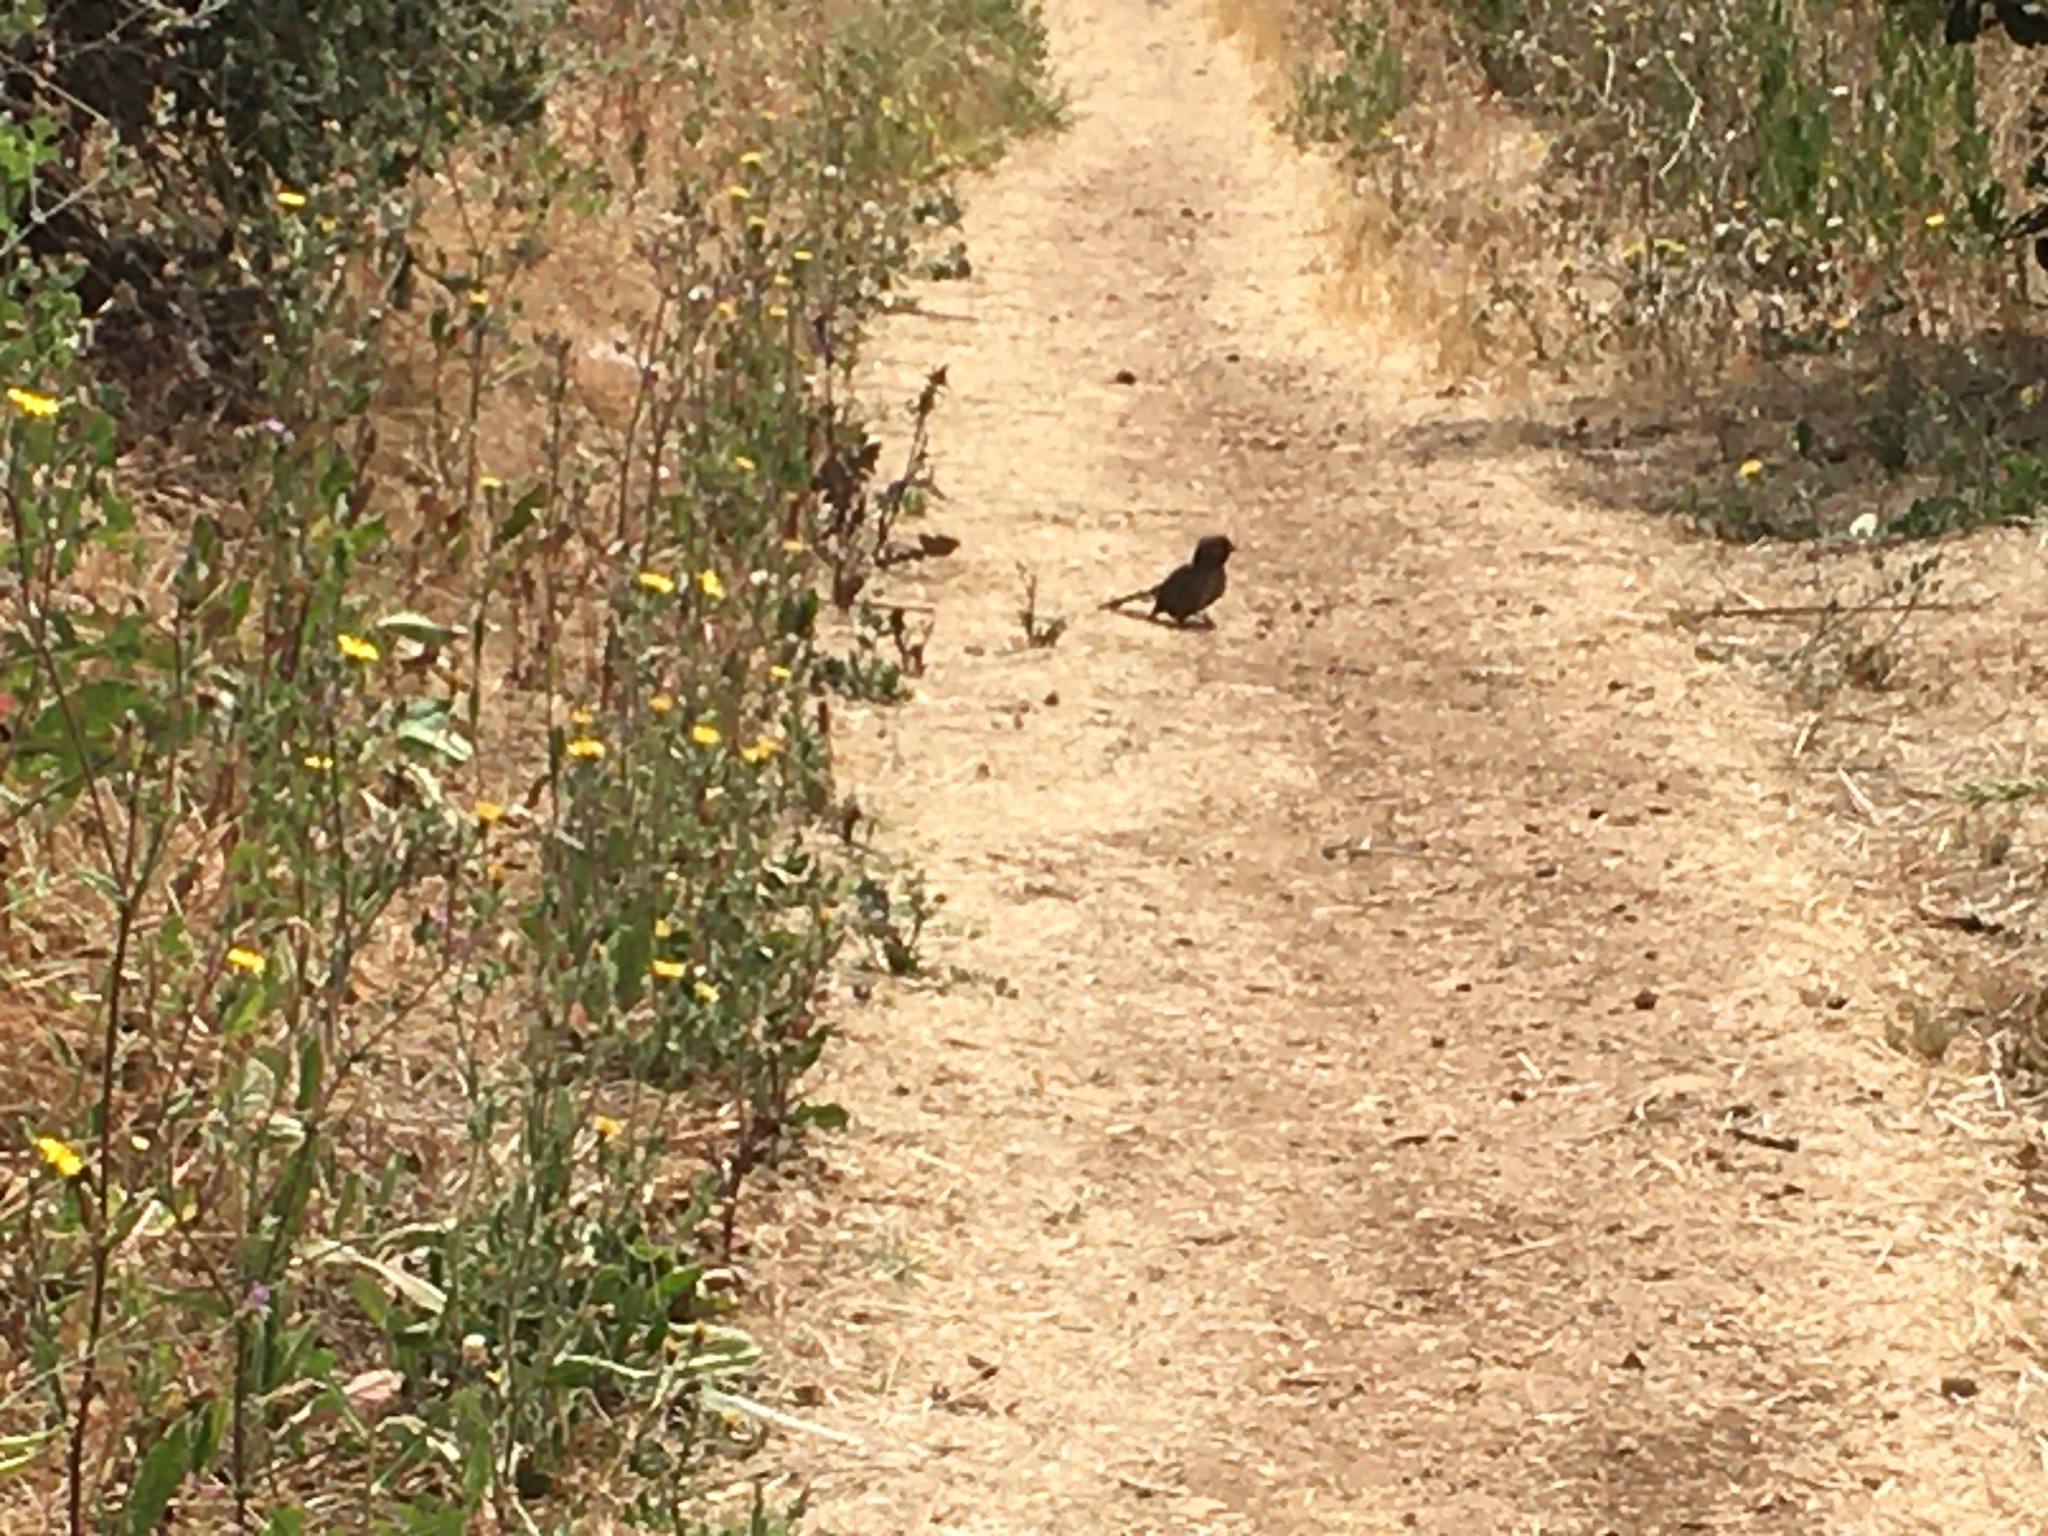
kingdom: Animalia
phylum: Chordata
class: Aves
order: Passeriformes
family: Passerellidae
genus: Melozone
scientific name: Melozone crissalis
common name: California towhee
